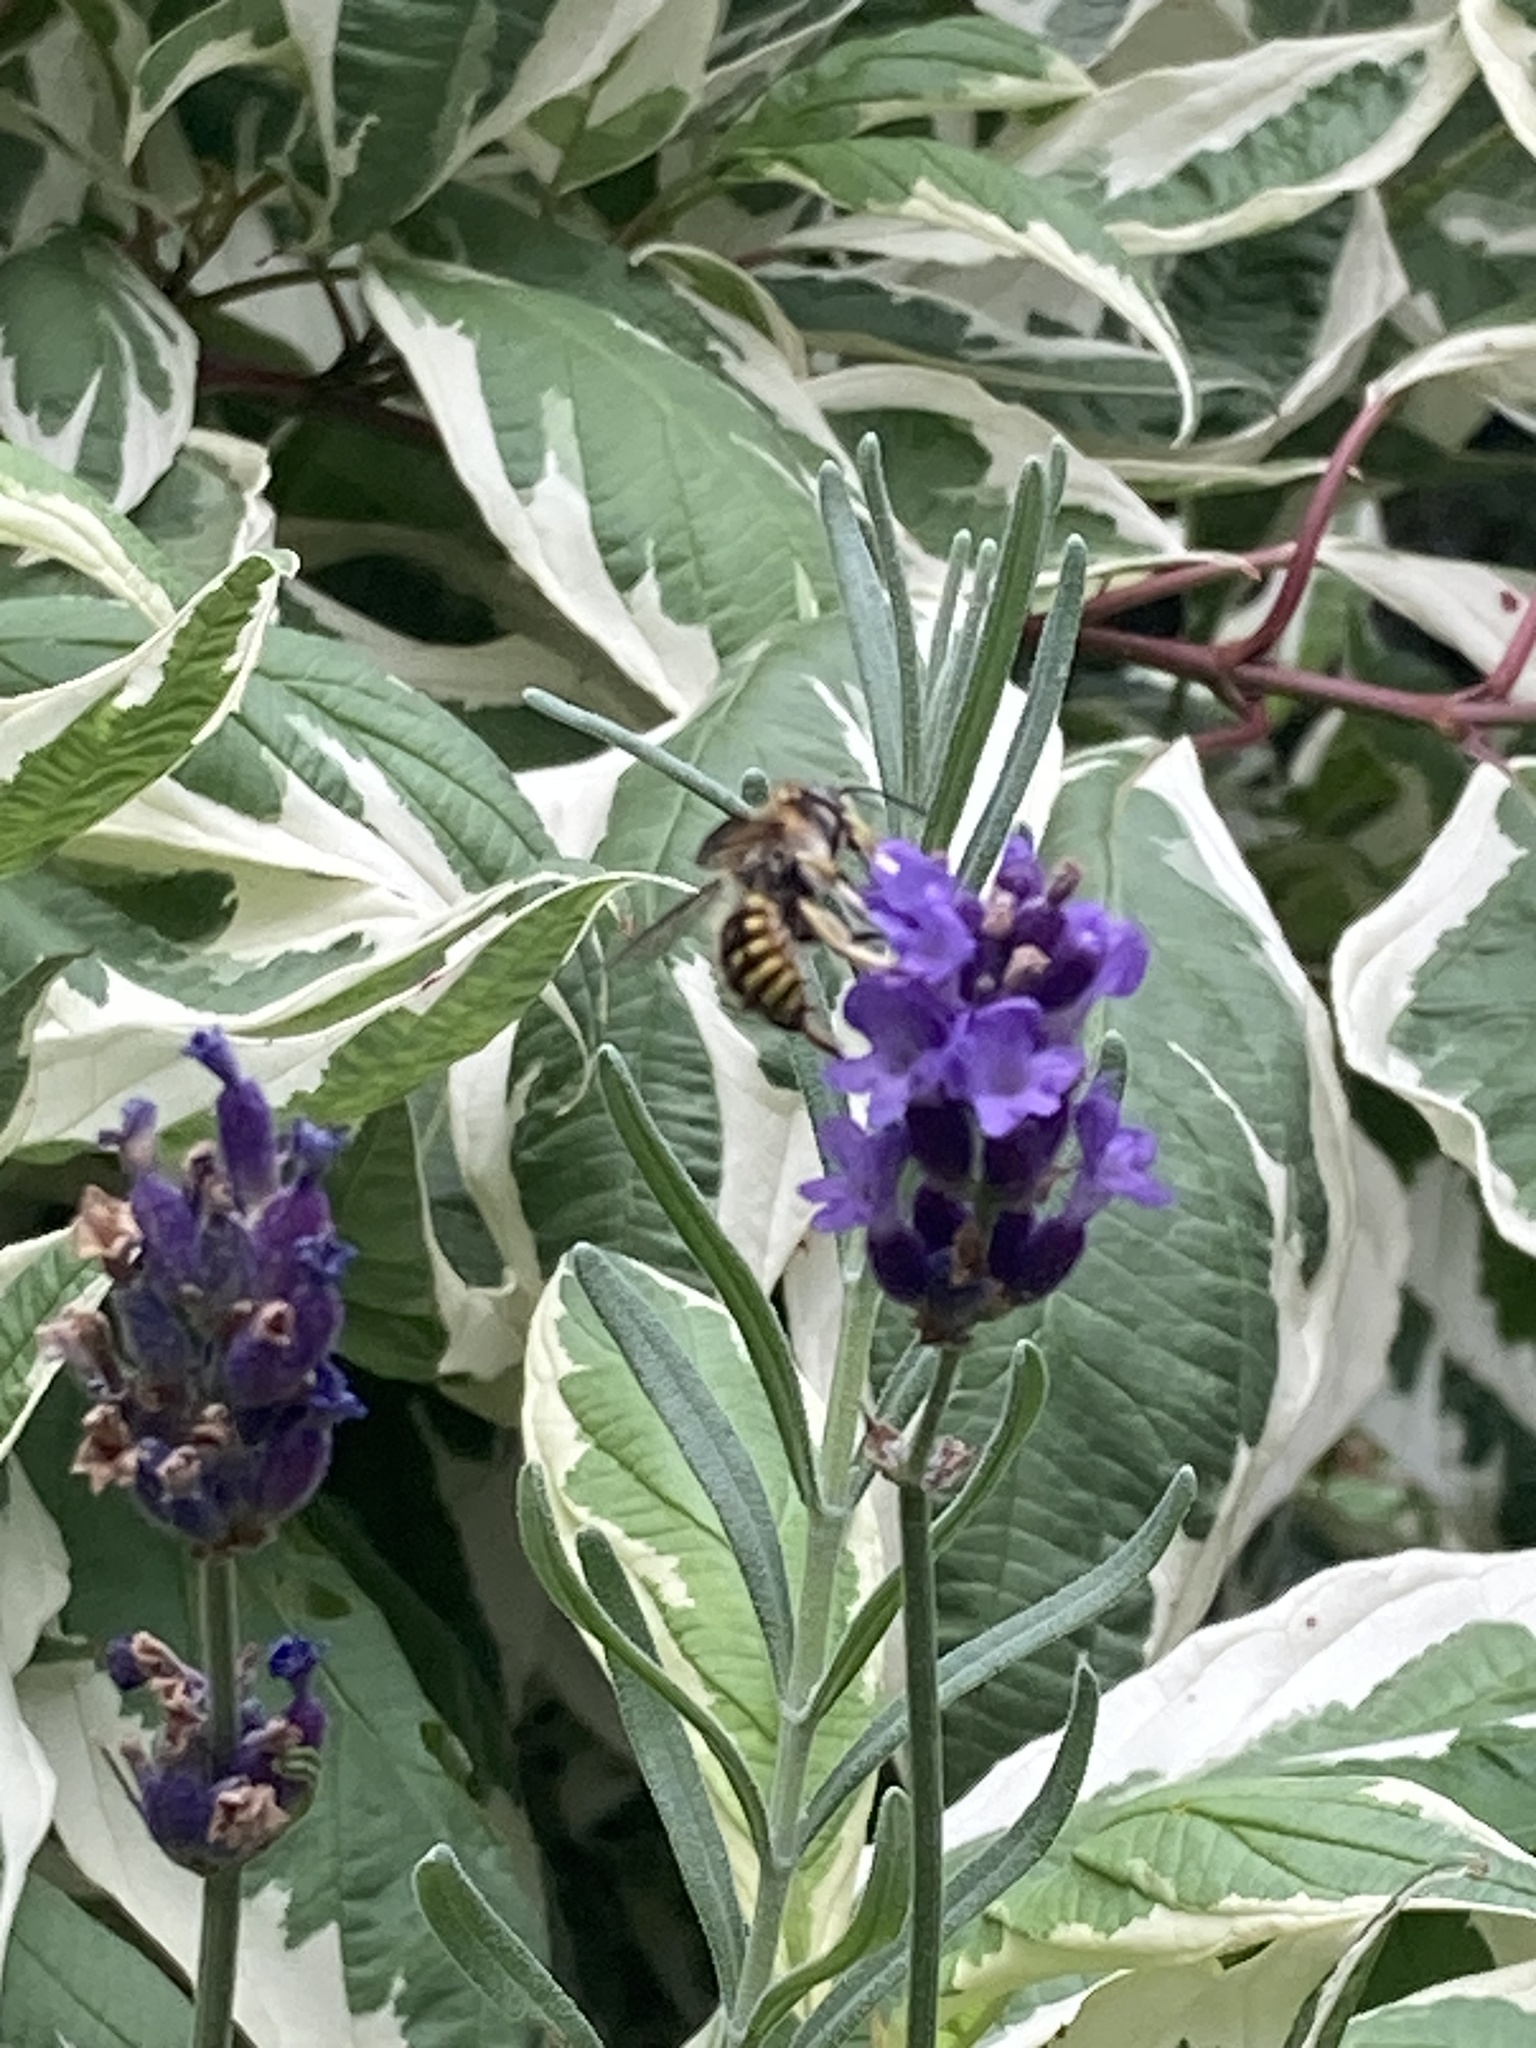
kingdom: Animalia
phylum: Arthropoda
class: Insecta
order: Hymenoptera
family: Megachilidae
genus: Anthidium
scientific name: Anthidium manicatum
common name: Wool carder bee
